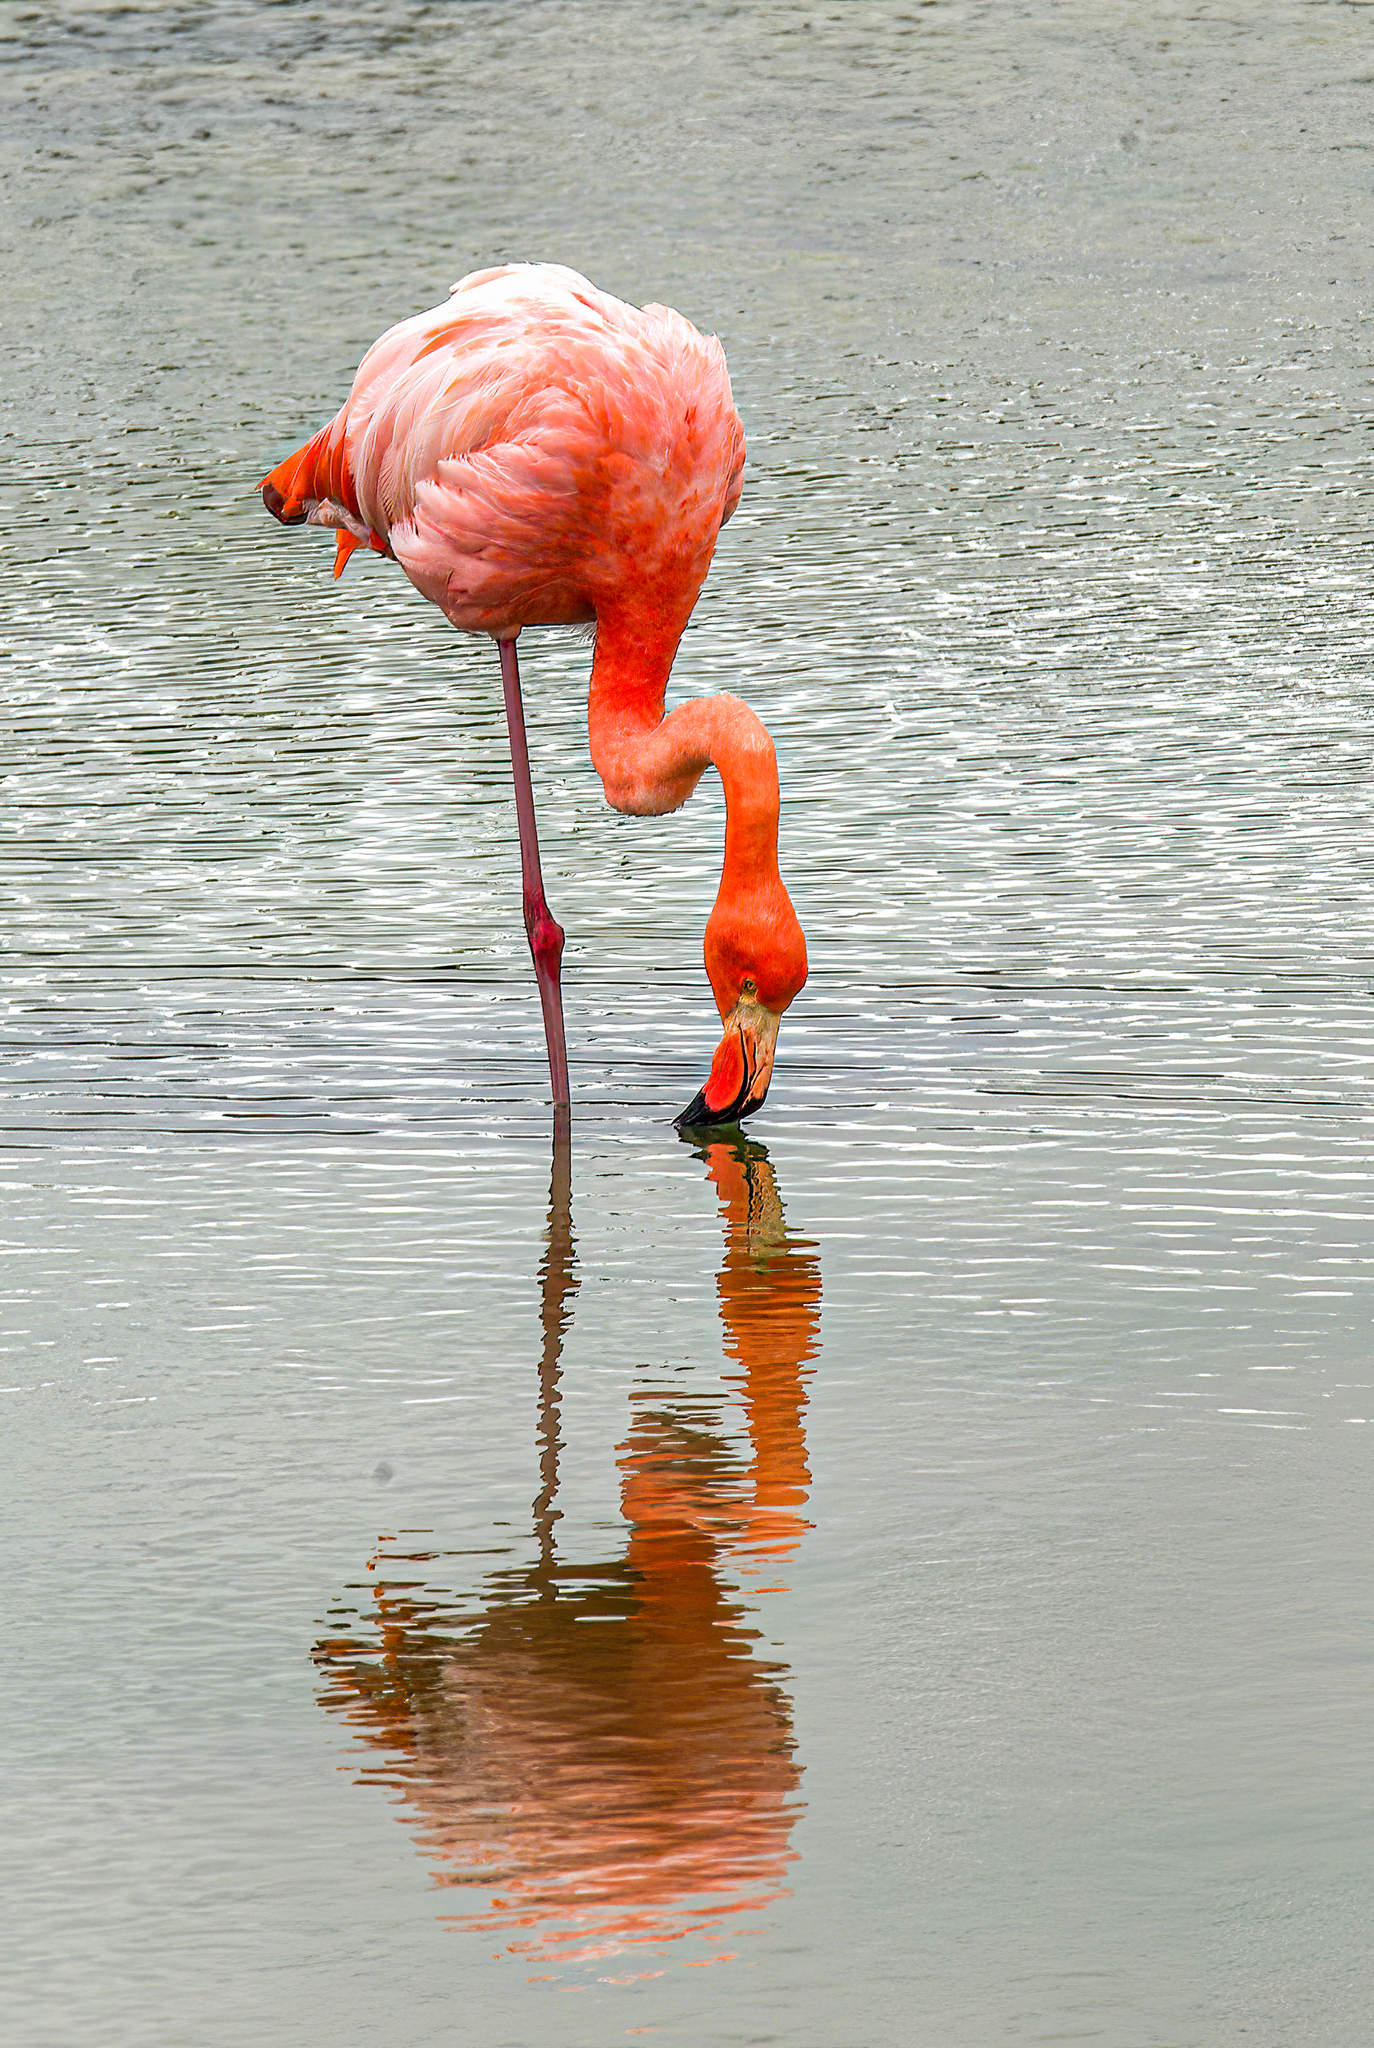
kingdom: Animalia
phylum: Chordata
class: Aves
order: Phoenicopteriformes
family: Phoenicopteridae
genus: Phoenicopterus
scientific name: Phoenicopterus ruber
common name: American flamingo
